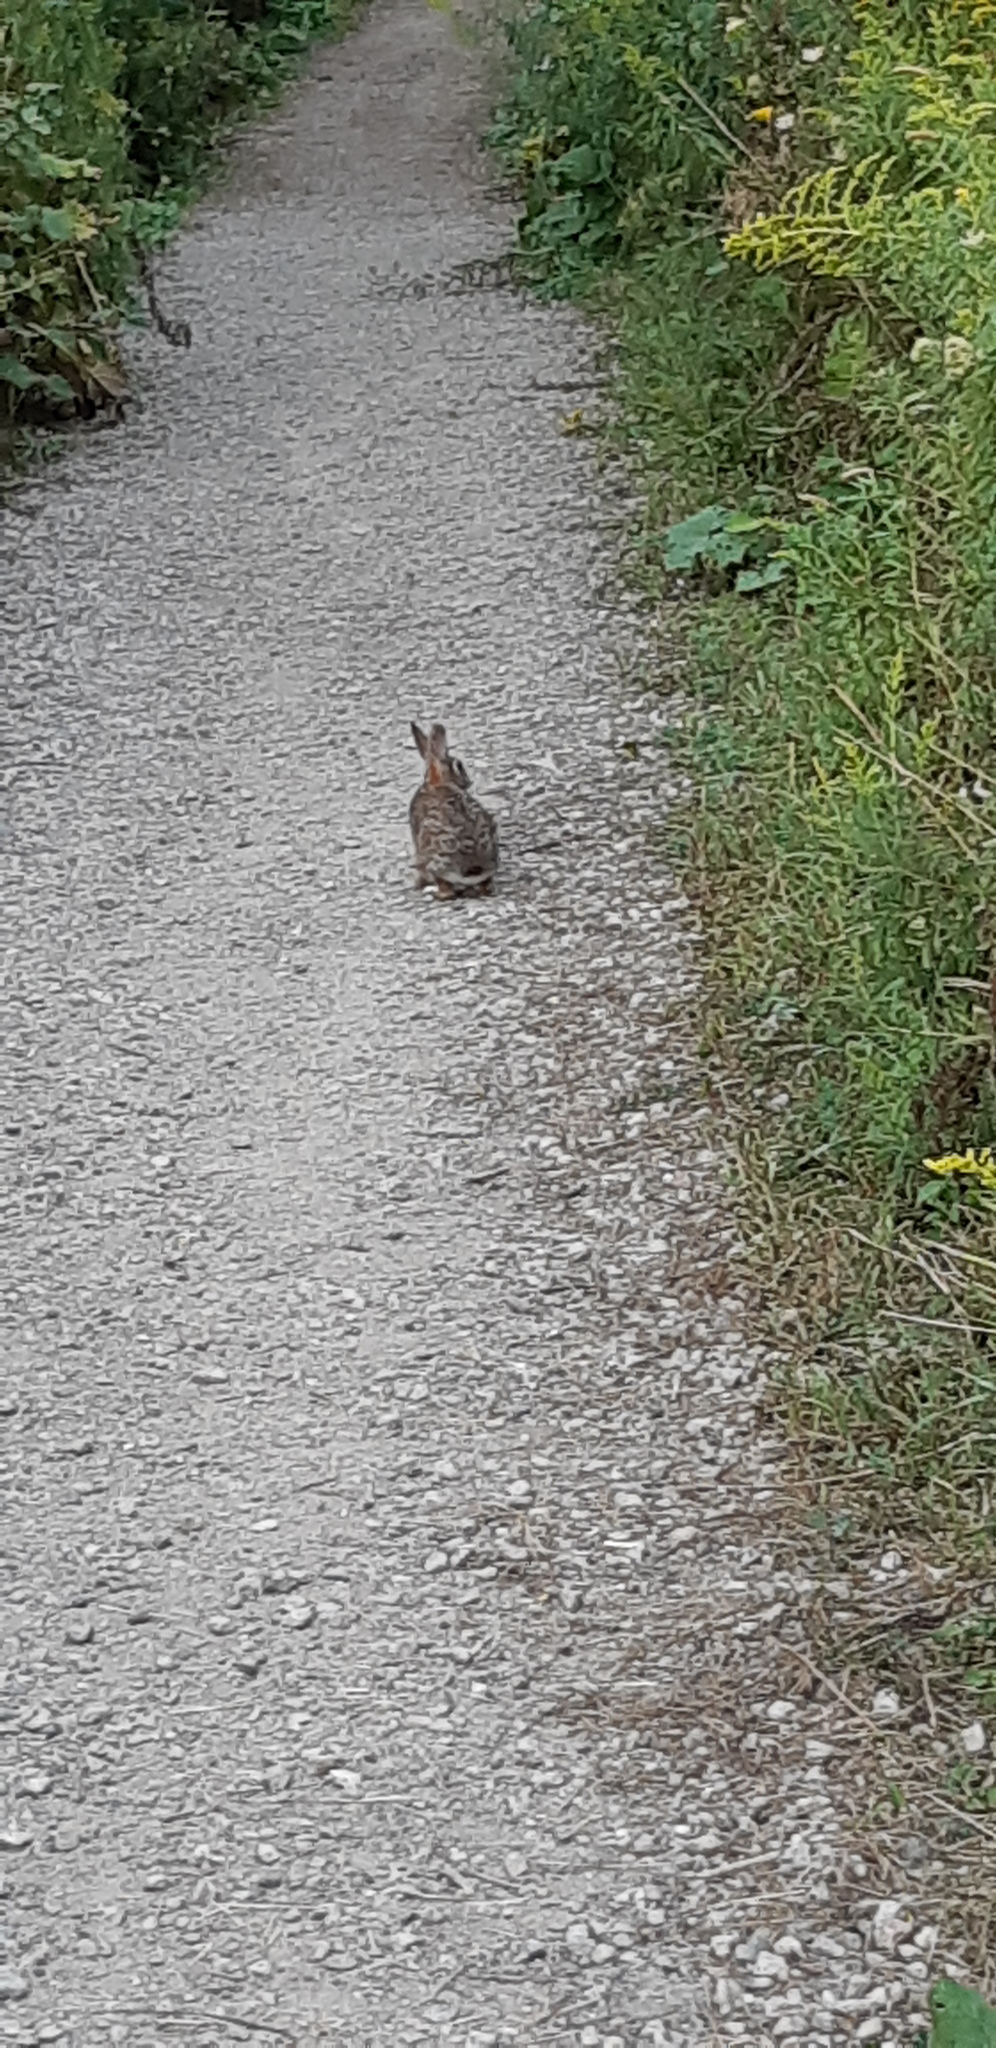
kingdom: Animalia
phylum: Chordata
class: Mammalia
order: Lagomorpha
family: Leporidae
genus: Sylvilagus
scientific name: Sylvilagus floridanus
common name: Eastern cottontail
